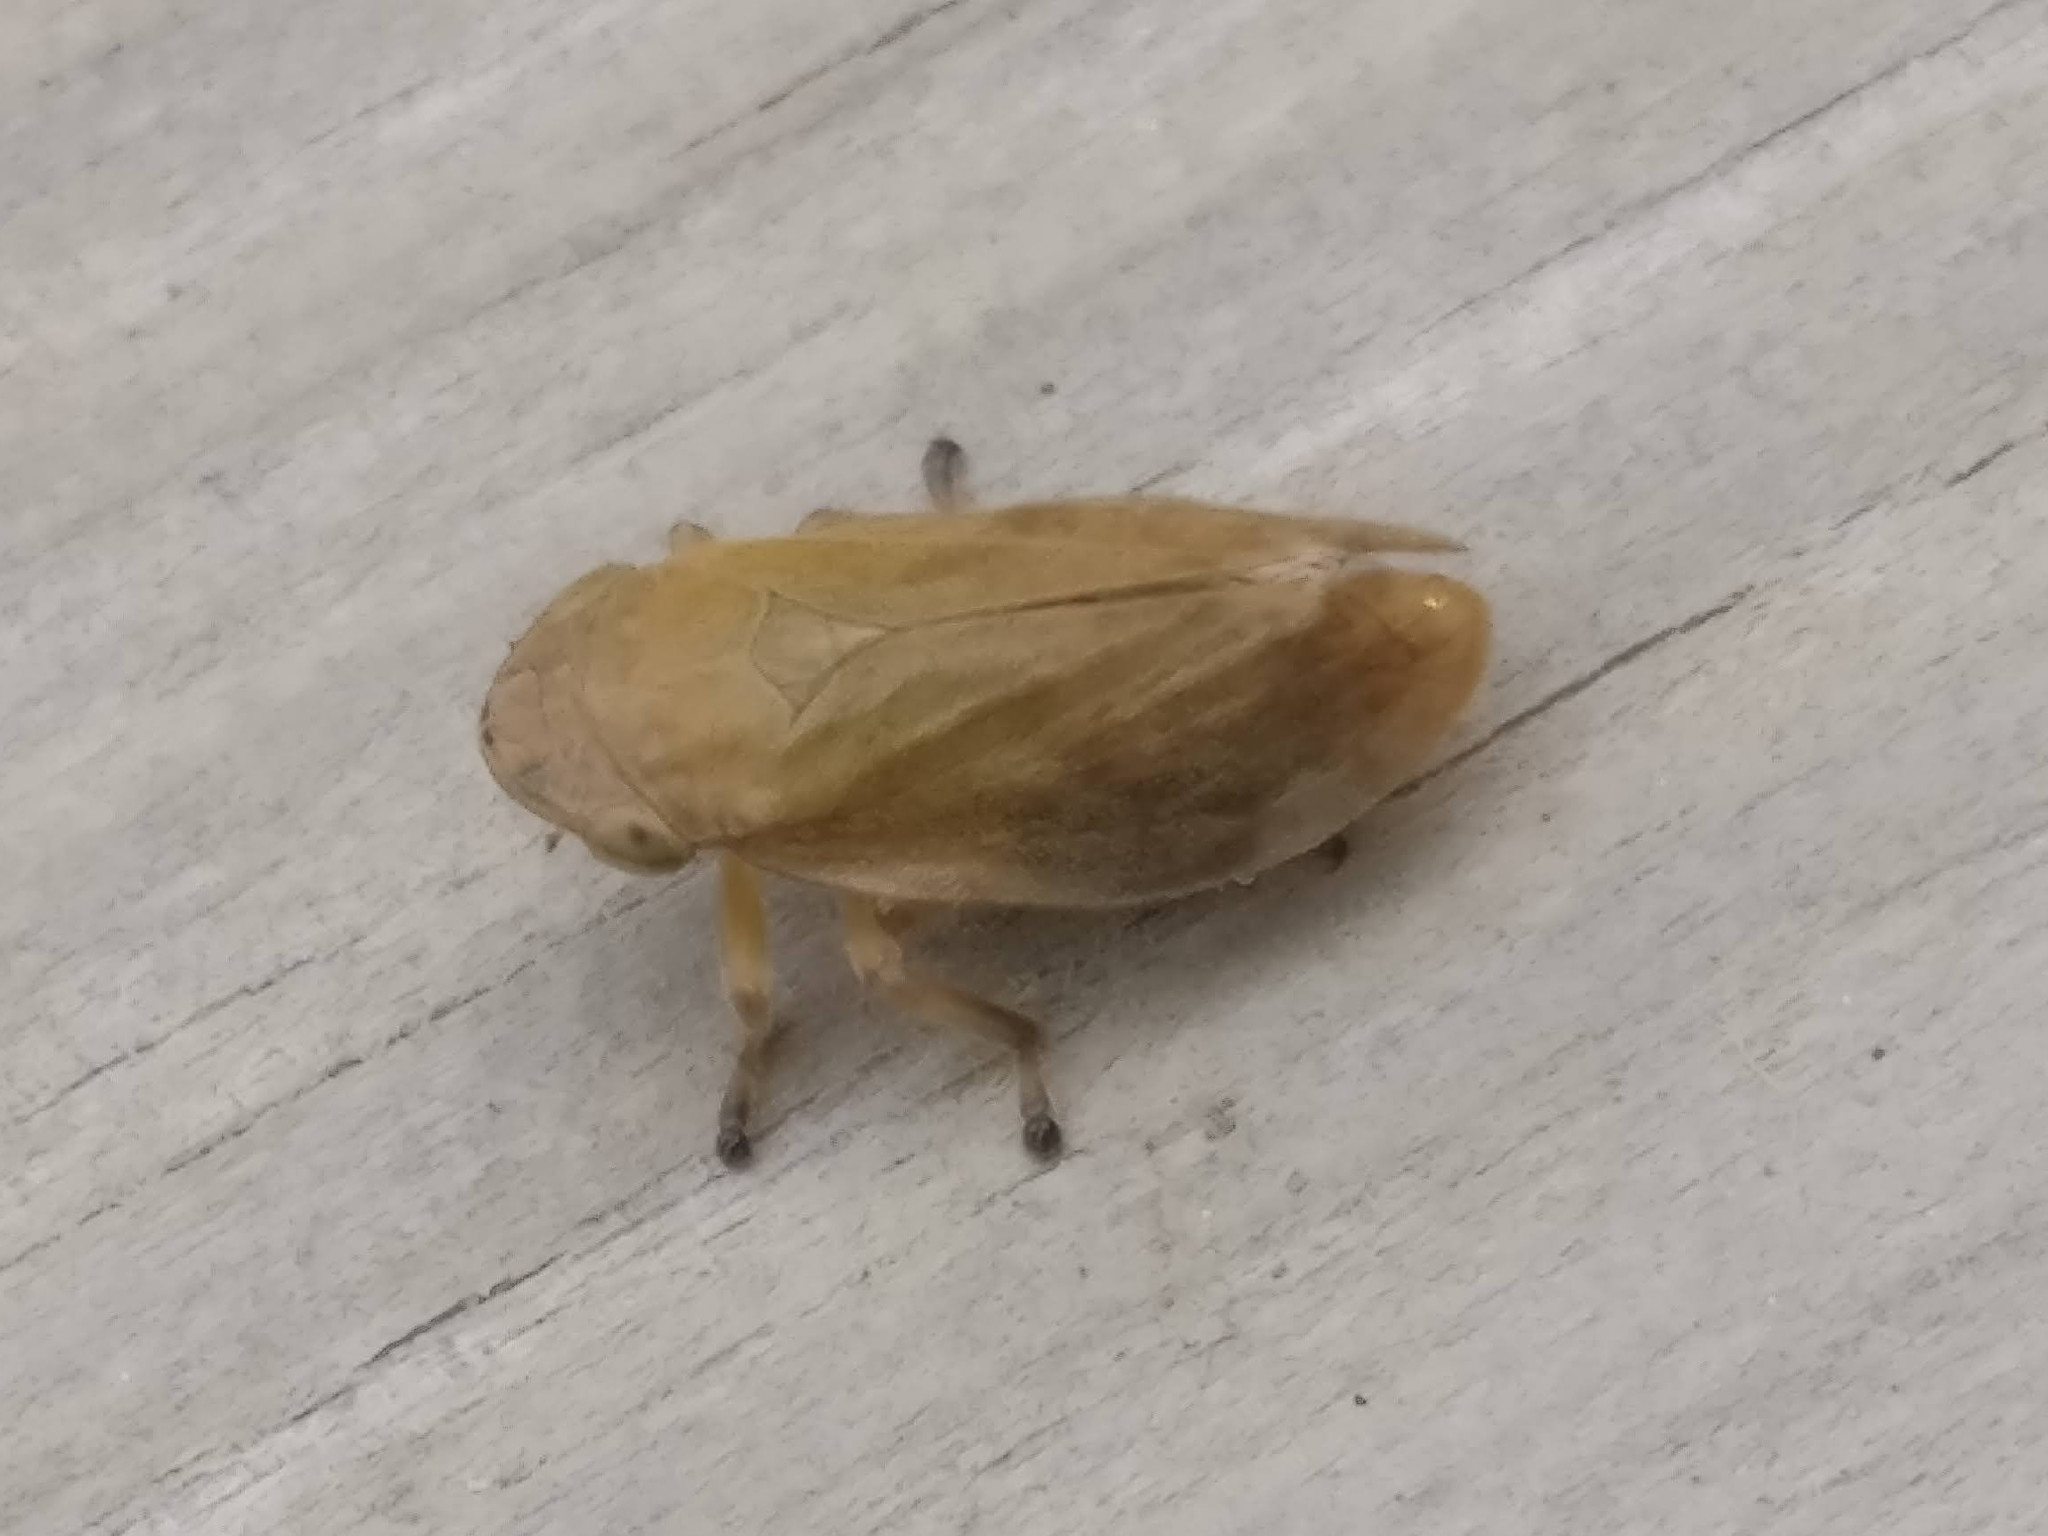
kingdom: Animalia
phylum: Arthropoda
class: Insecta
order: Hemiptera
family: Aphrophoridae
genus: Philaenus
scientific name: Philaenus spumarius
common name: Meadow spittlebug
